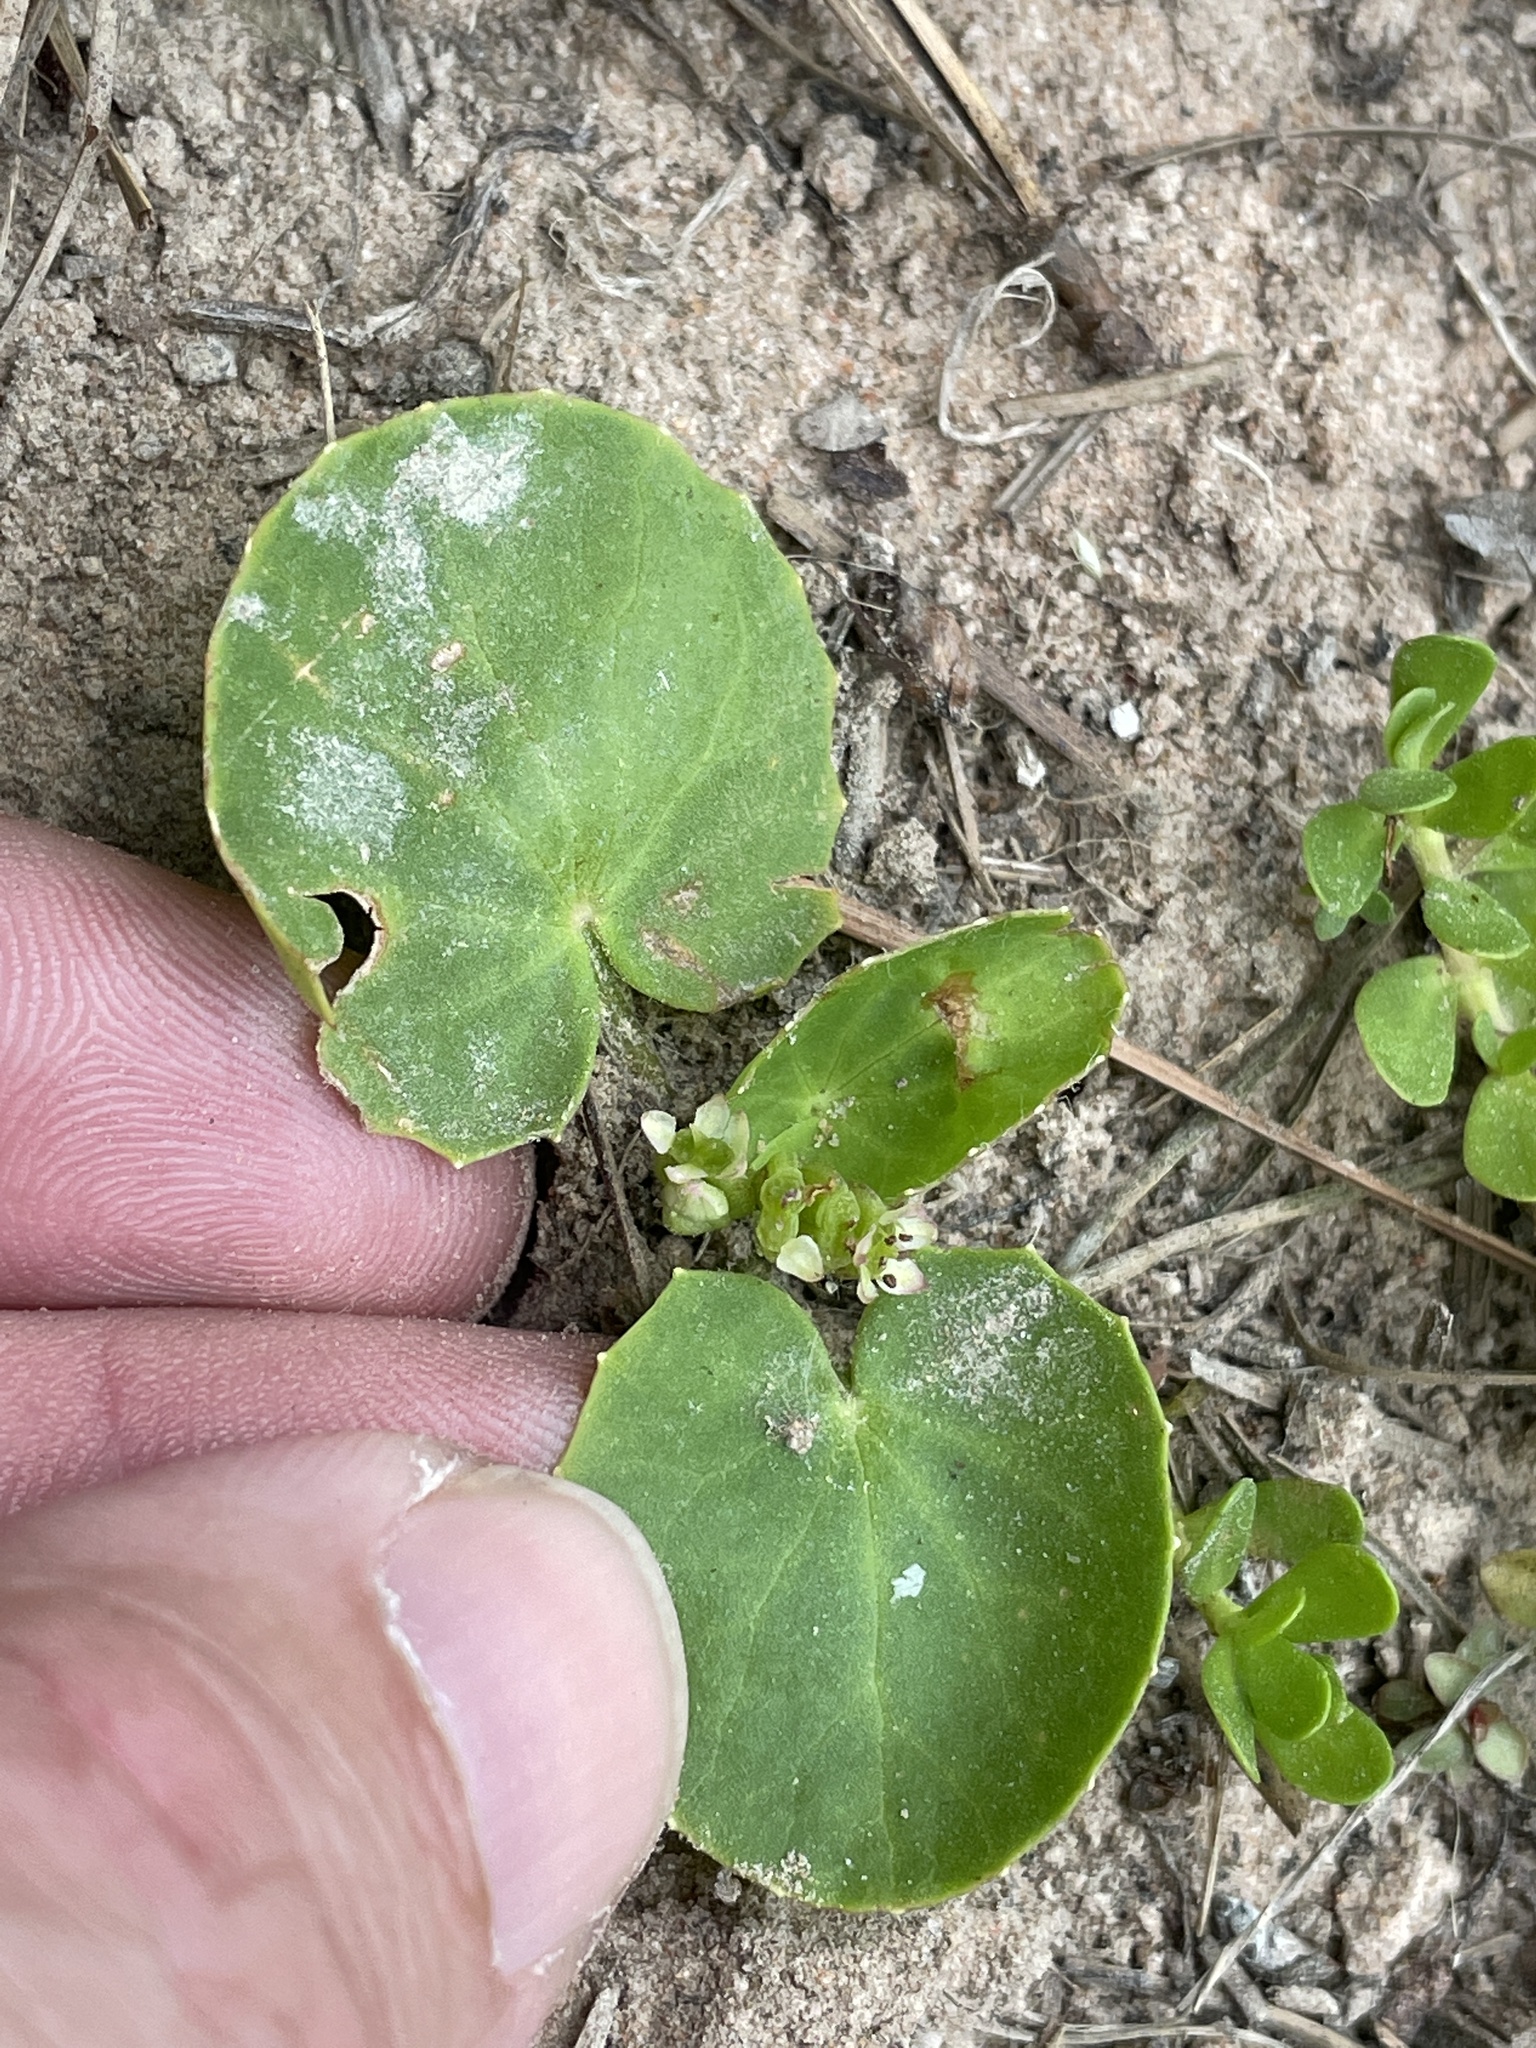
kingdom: Plantae
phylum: Tracheophyta
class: Magnoliopsida
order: Apiales
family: Apiaceae
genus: Centella
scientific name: Centella erecta
